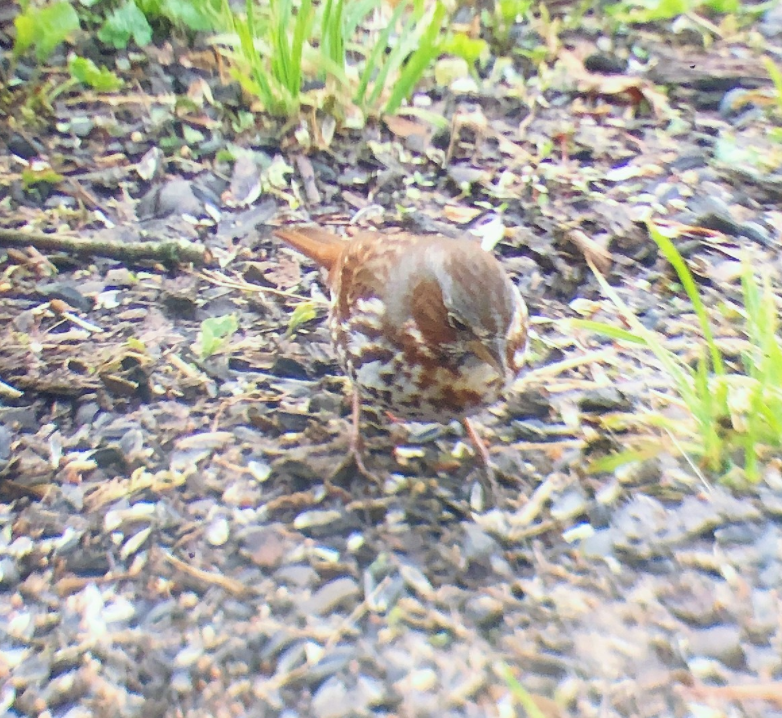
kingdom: Animalia
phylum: Chordata
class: Aves
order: Passeriformes
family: Passerellidae
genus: Passerella
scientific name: Passerella iliaca
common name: Fox sparrow
